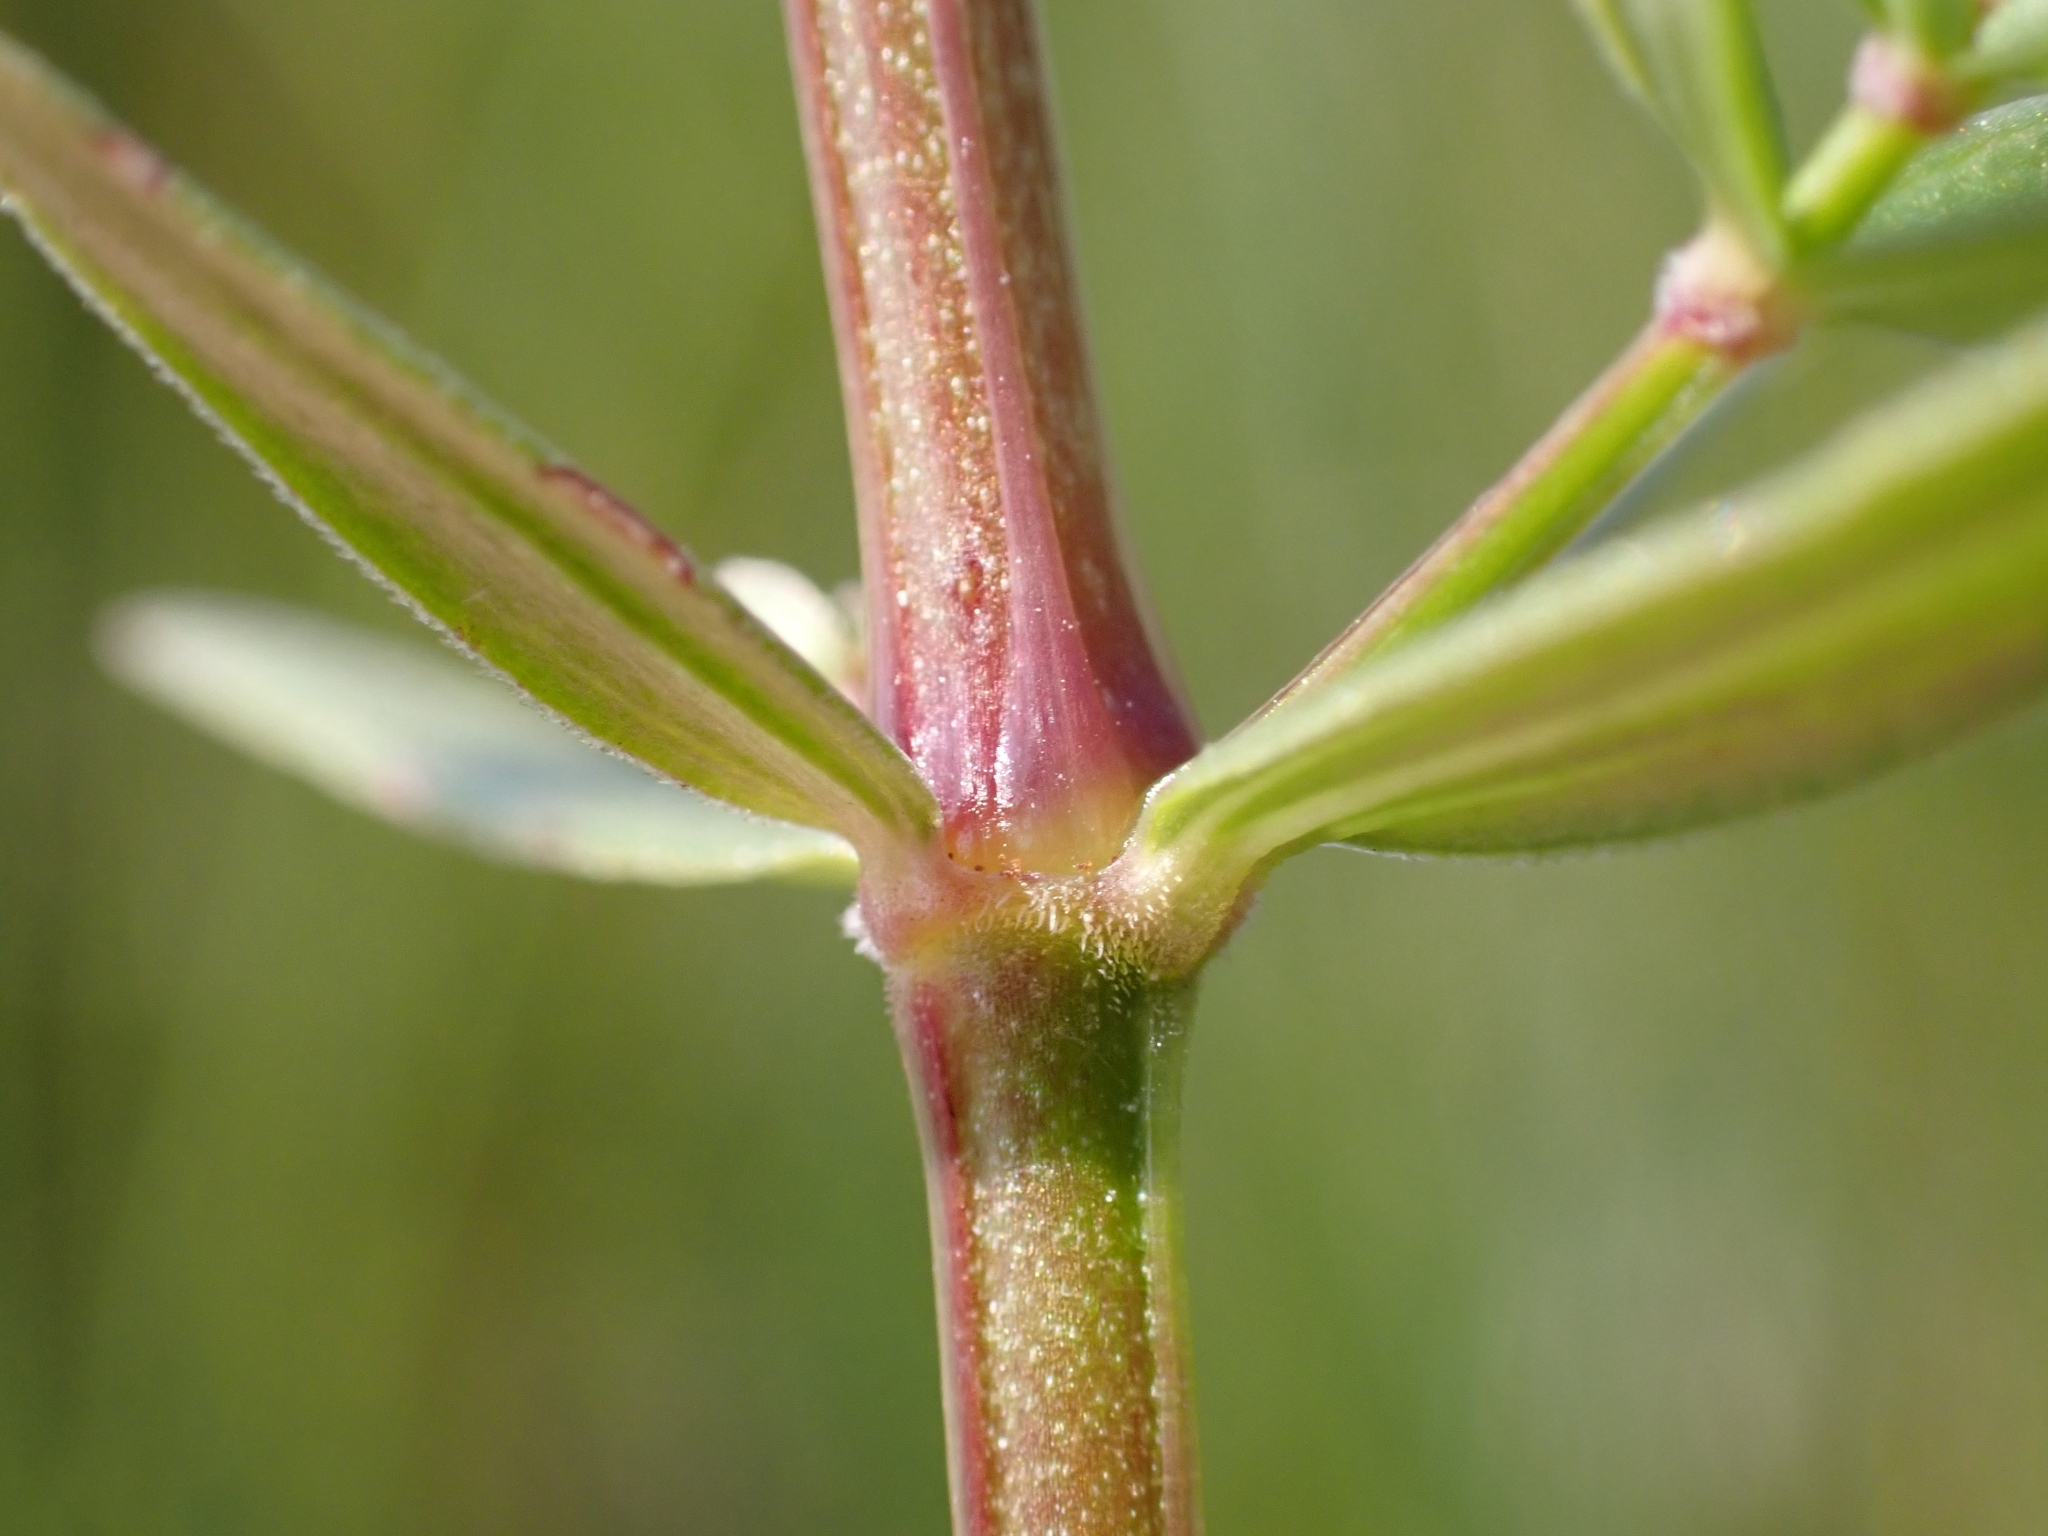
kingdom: Plantae
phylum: Tracheophyta
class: Magnoliopsida
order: Gentianales
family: Rubiaceae
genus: Galium
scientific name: Galium boreale
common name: Northern bedstraw
